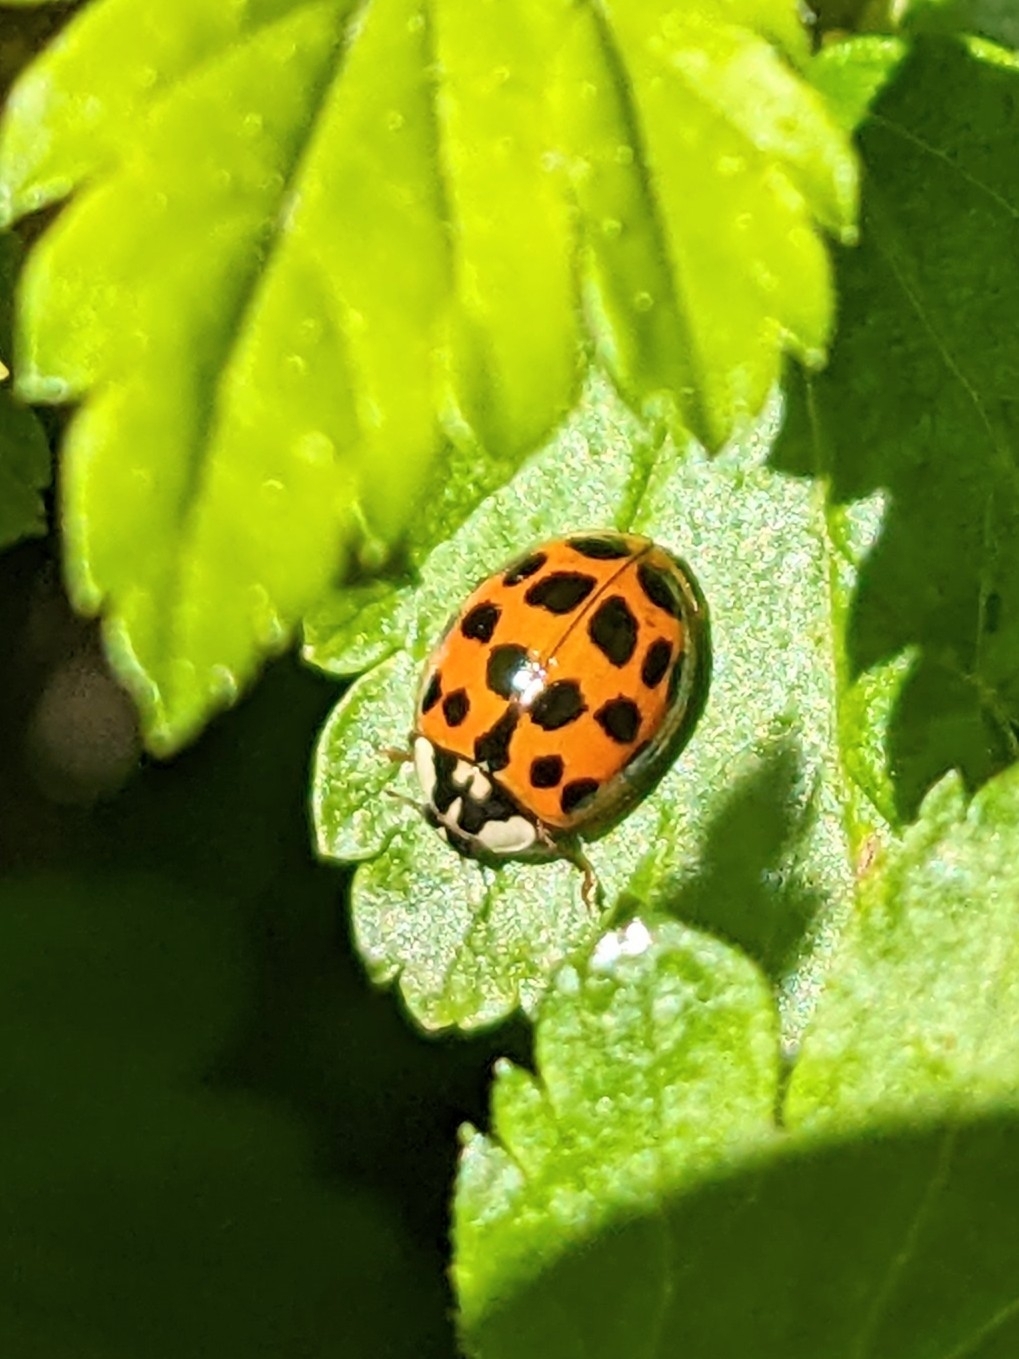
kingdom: Animalia
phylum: Arthropoda
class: Insecta
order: Coleoptera
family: Coccinellidae
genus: Harmonia
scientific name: Harmonia axyridis
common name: Harlequin ladybird
